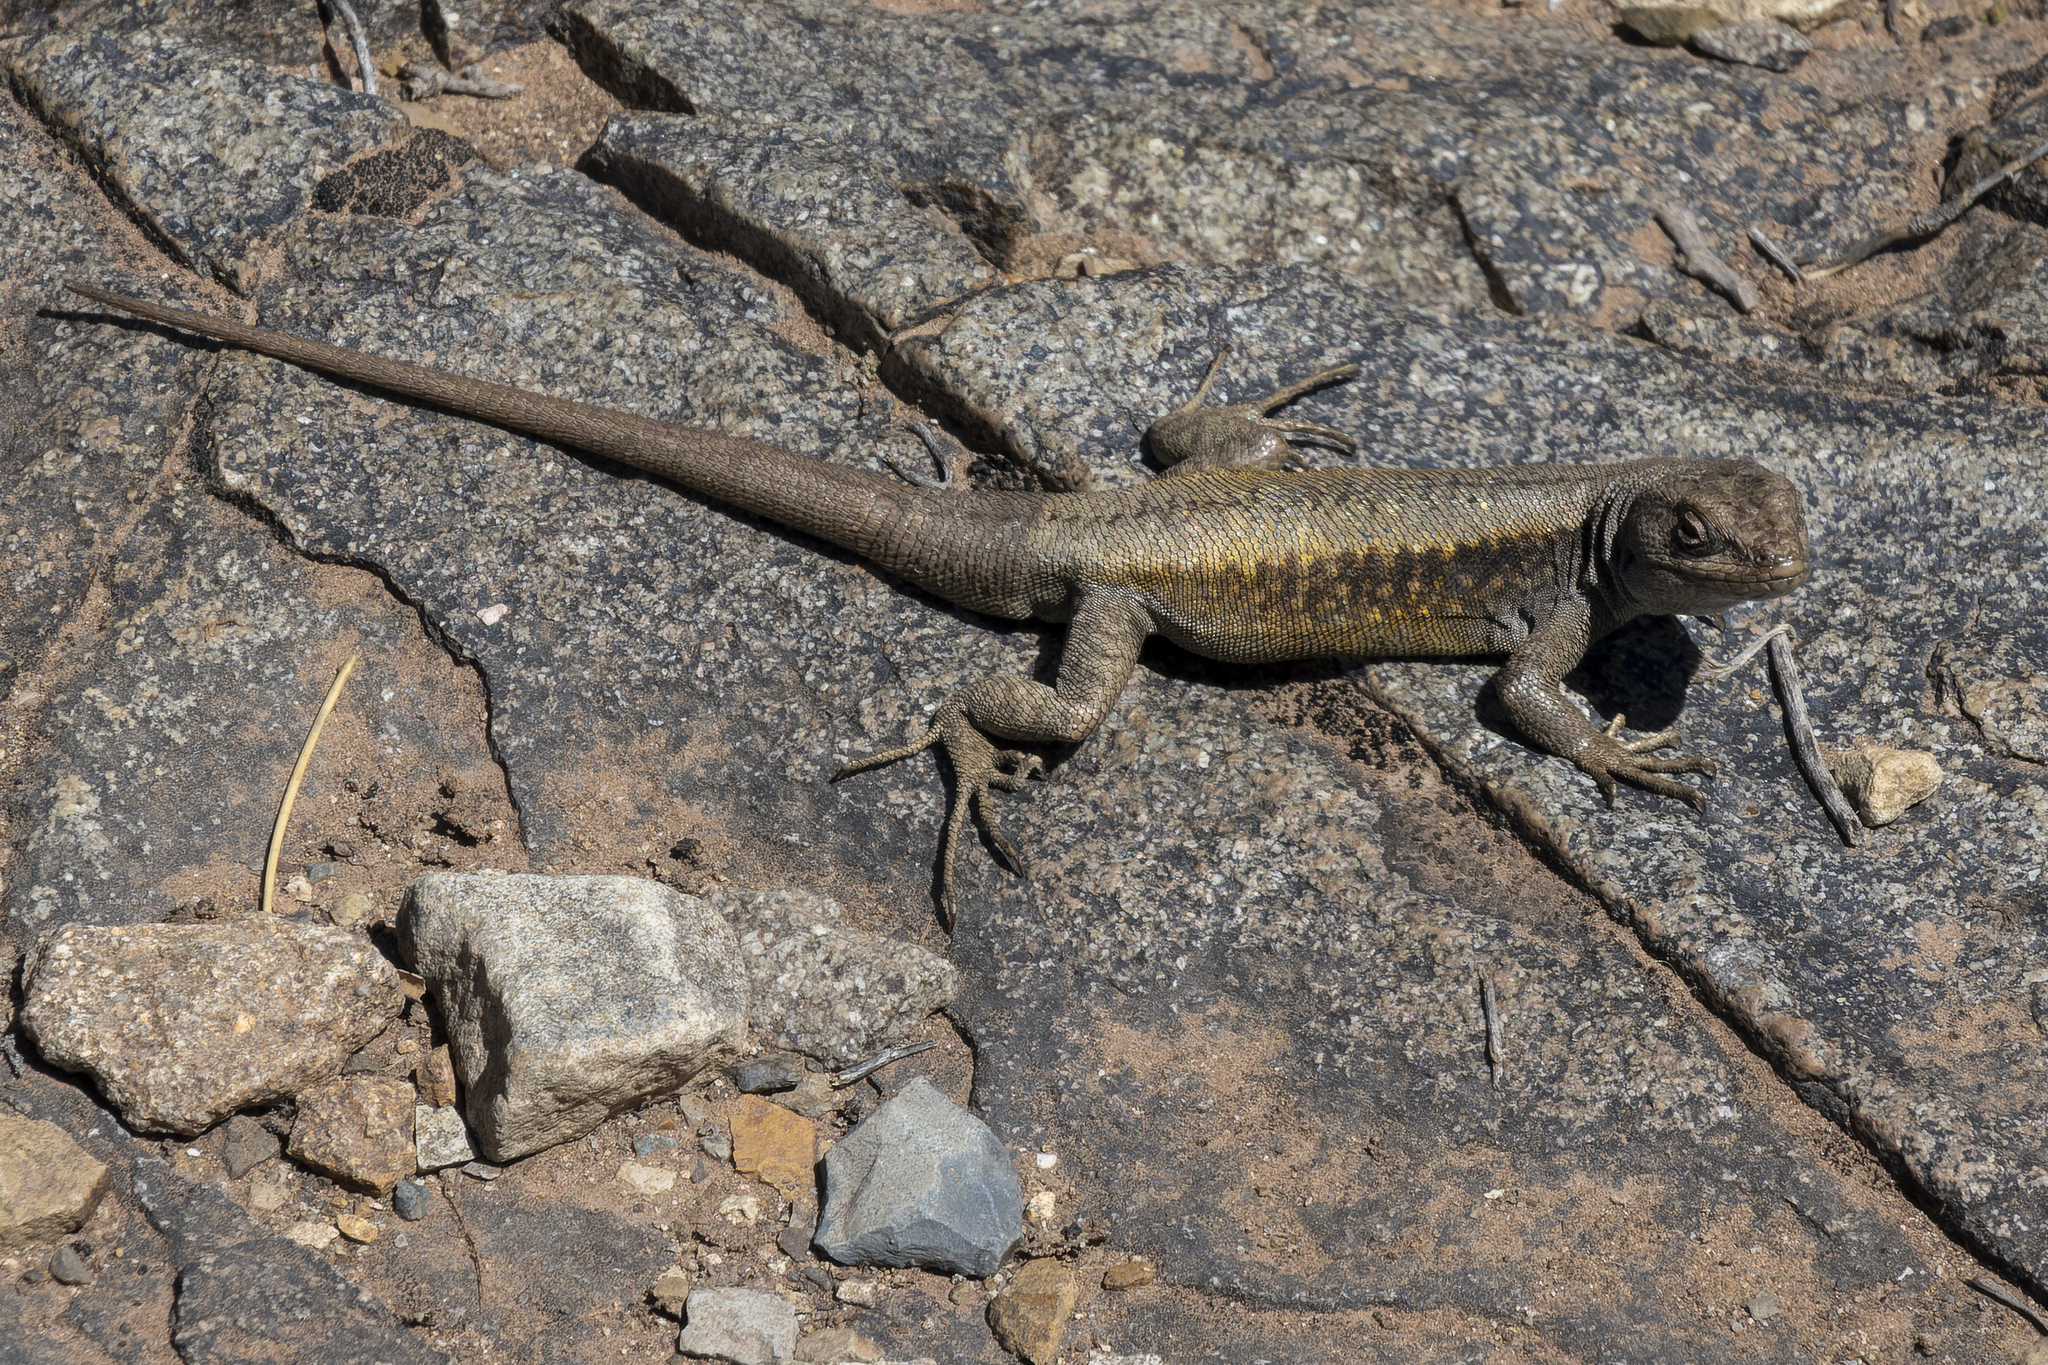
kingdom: Animalia
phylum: Chordata
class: Squamata
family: Liolaemidae
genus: Liolaemus
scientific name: Liolaemus parvus
